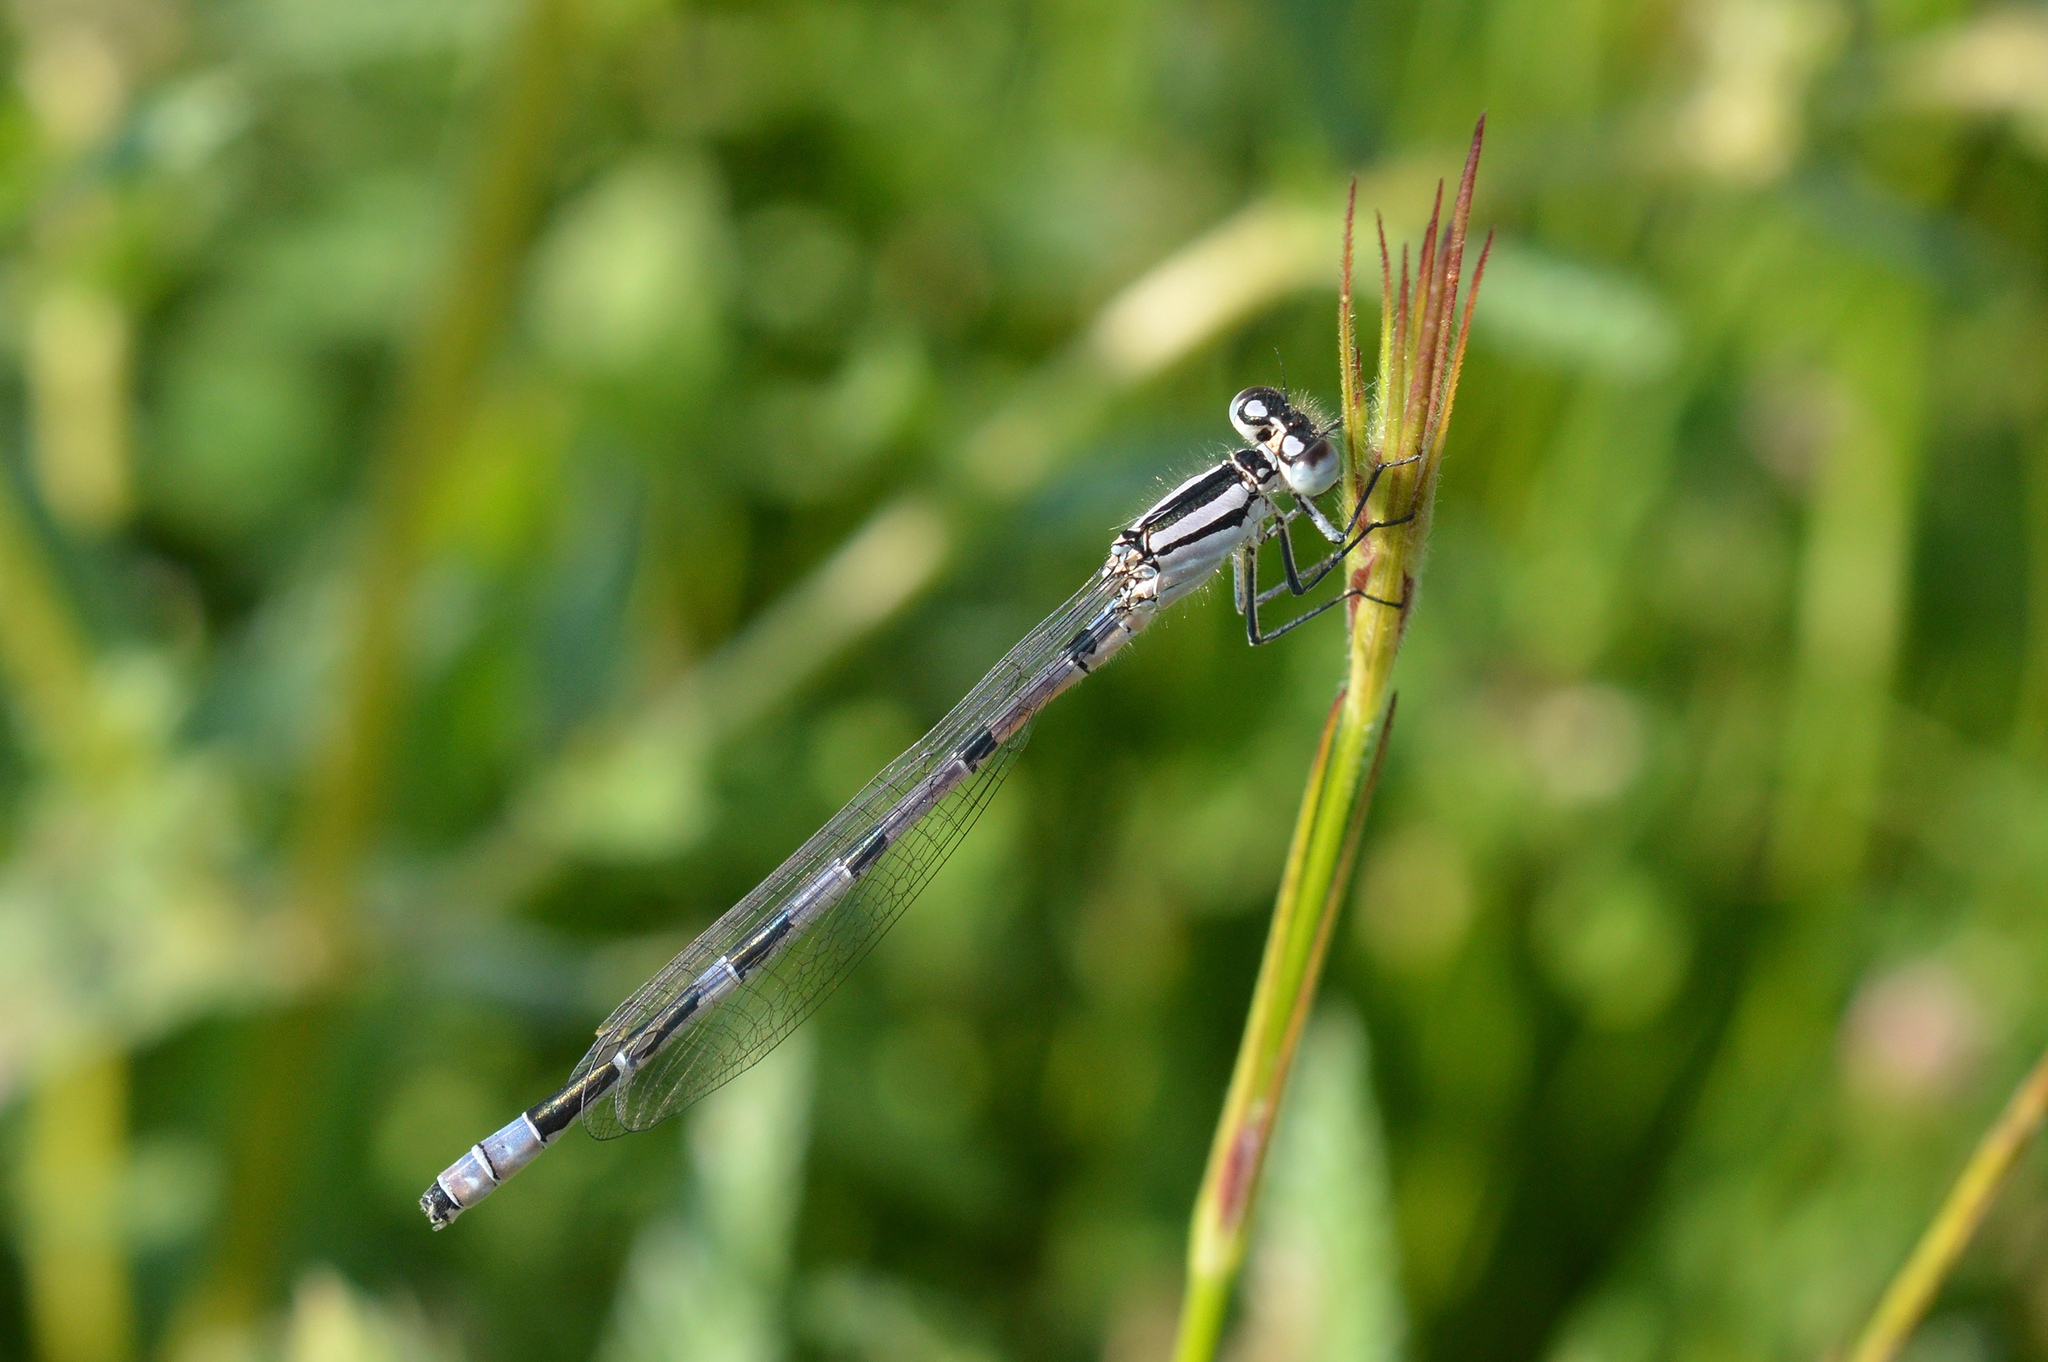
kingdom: Animalia
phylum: Arthropoda
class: Insecta
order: Odonata
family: Coenagrionidae
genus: Enallagma
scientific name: Enallagma cyathigerum
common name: Common blue damselfly
